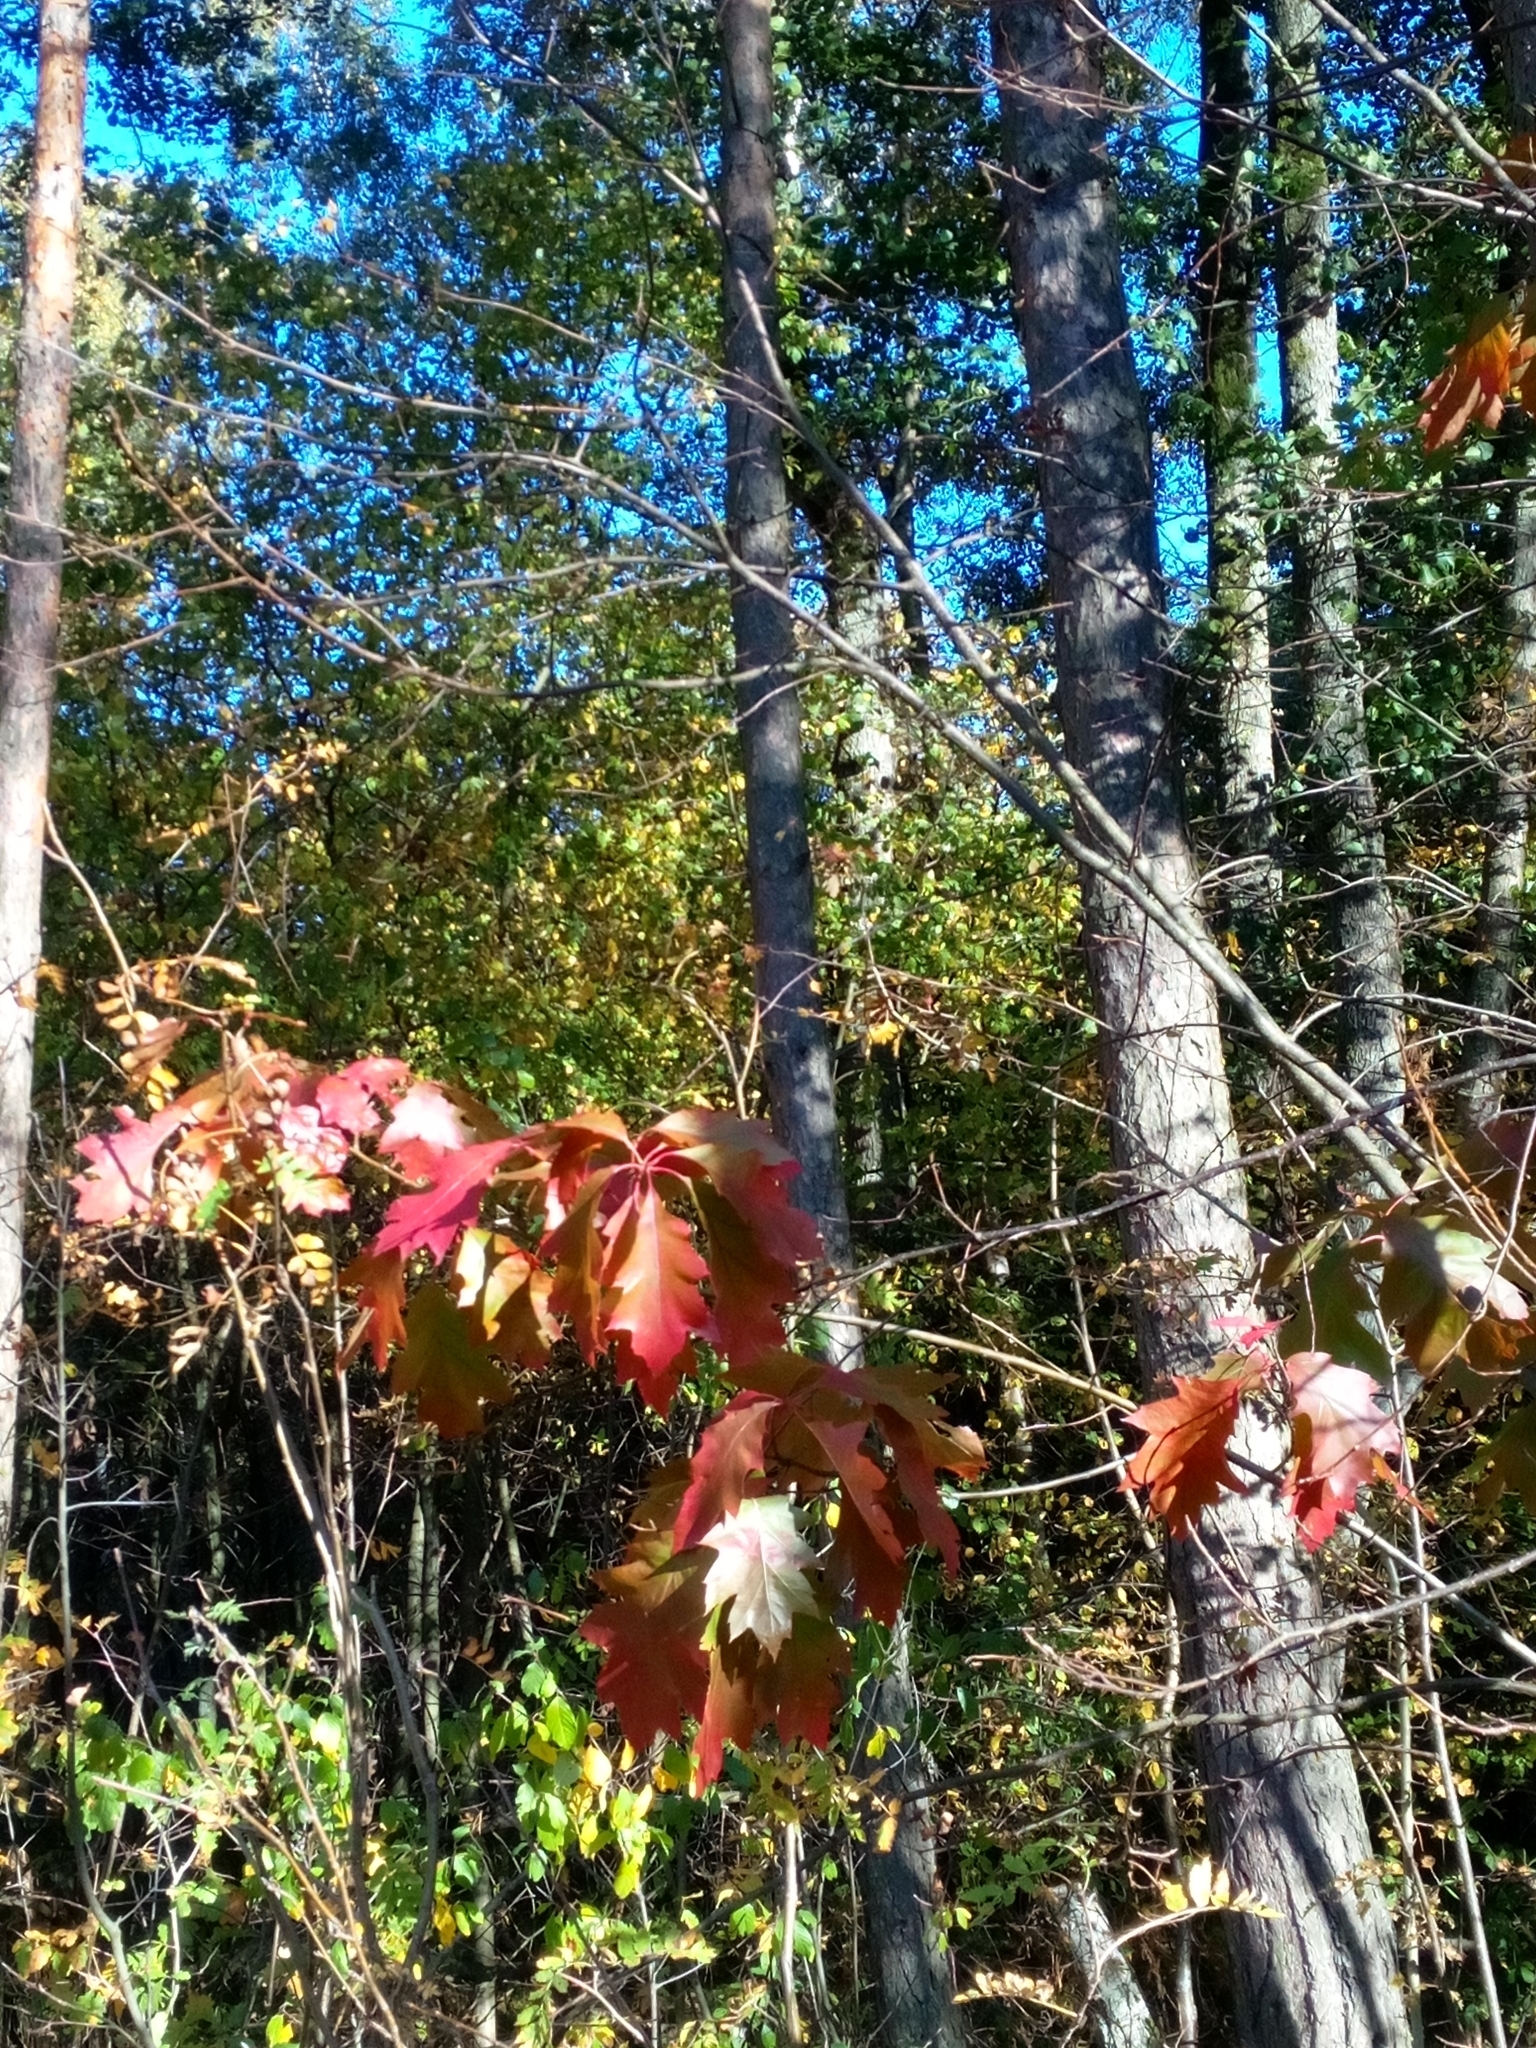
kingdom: Plantae
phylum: Tracheophyta
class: Magnoliopsida
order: Fagales
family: Fagaceae
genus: Quercus
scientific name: Quercus rubra
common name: Red oak
